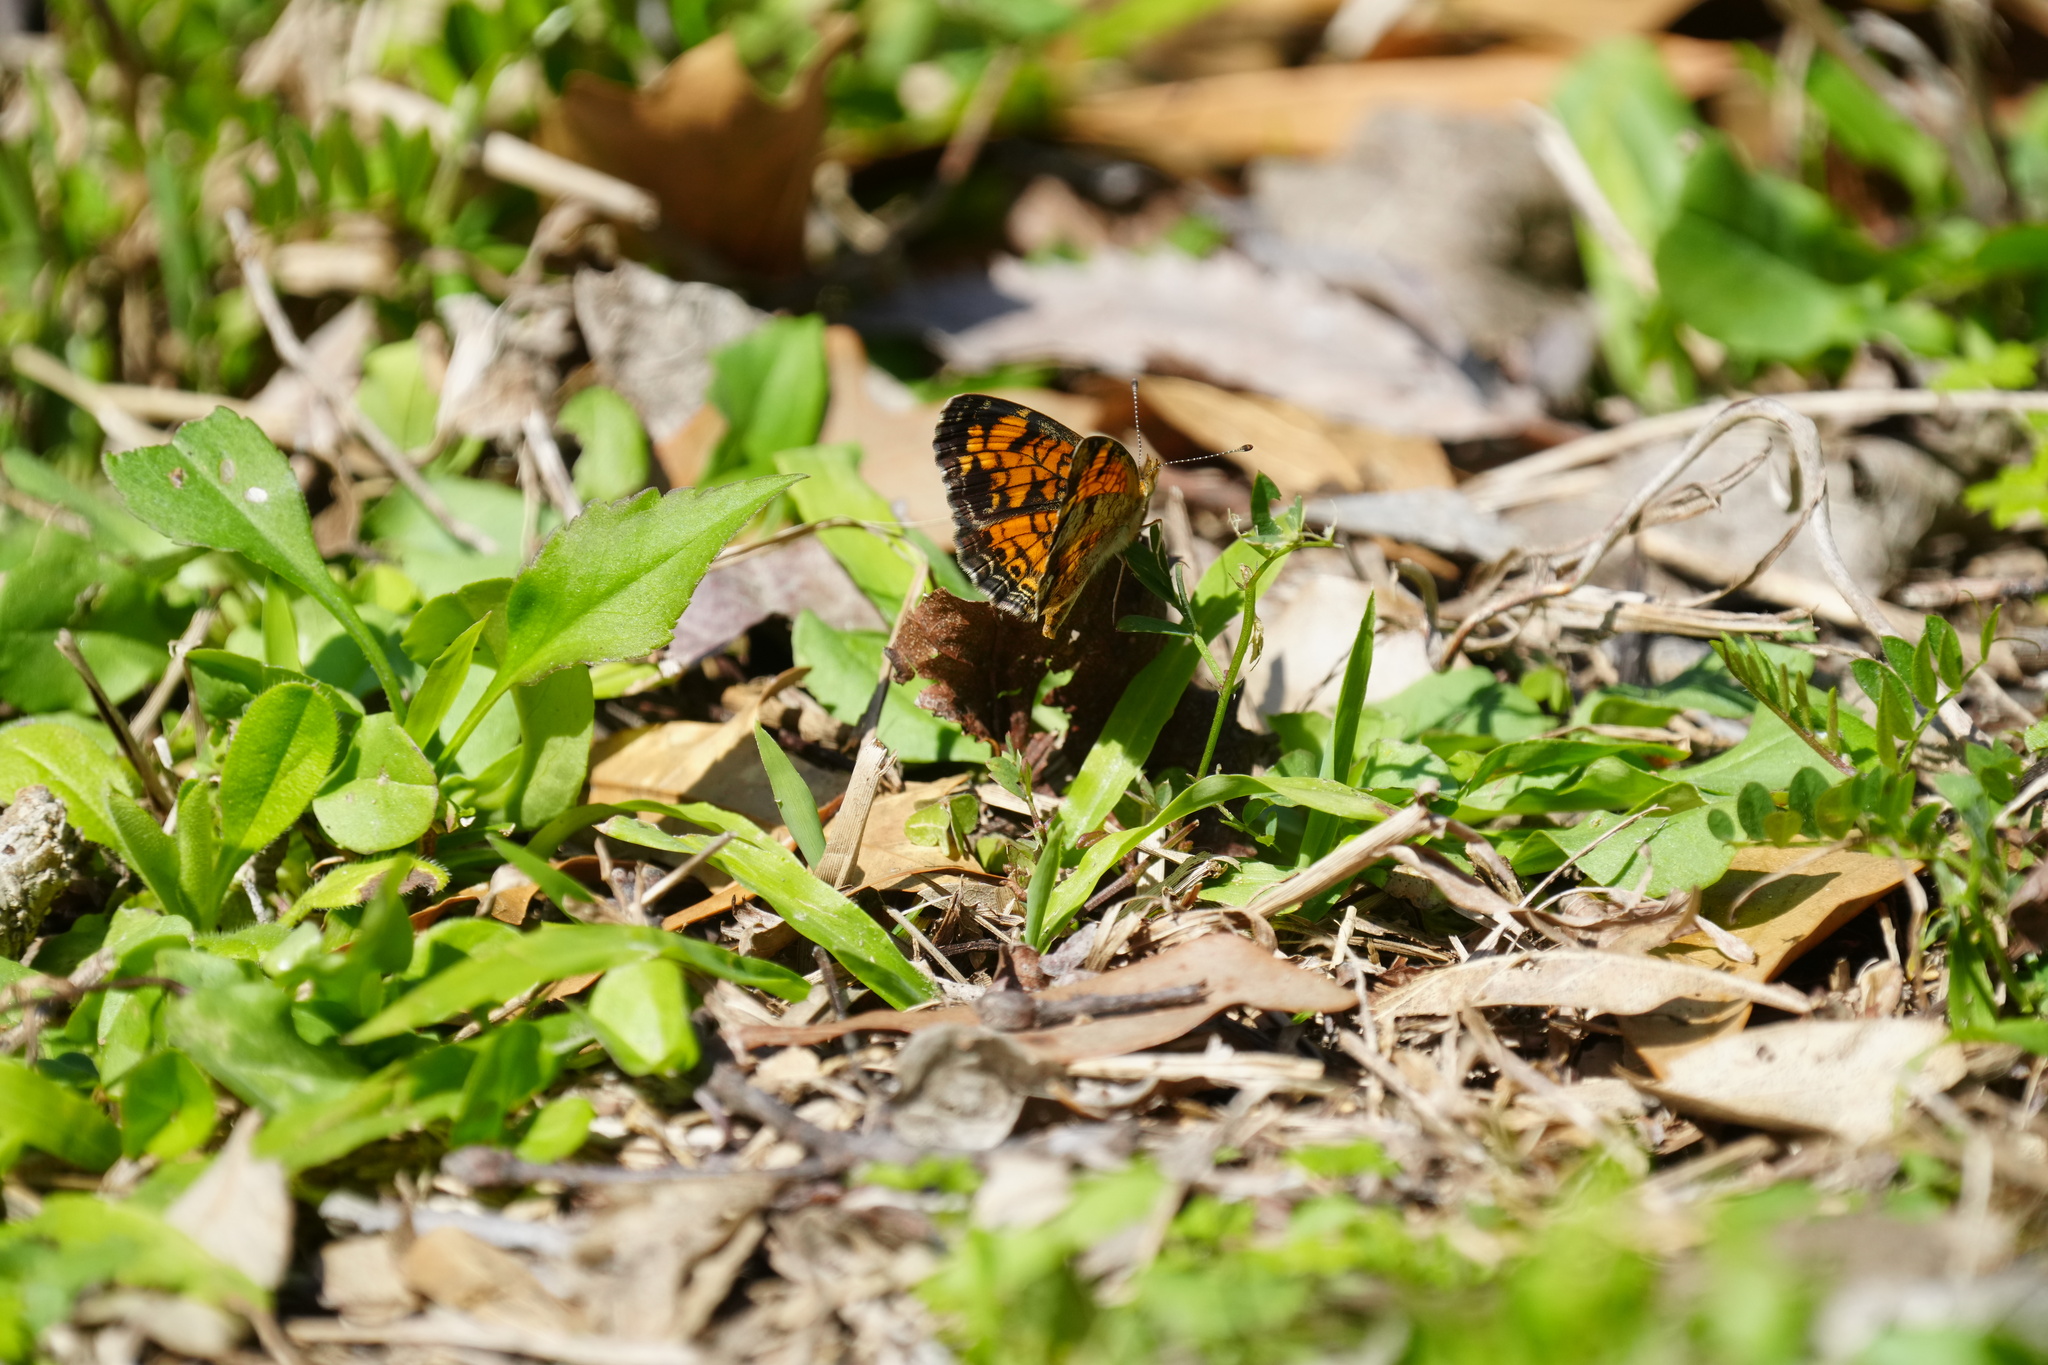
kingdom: Animalia
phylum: Arthropoda
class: Insecta
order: Lepidoptera
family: Nymphalidae
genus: Phyciodes
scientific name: Phyciodes tharos
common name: Pearl crescent
